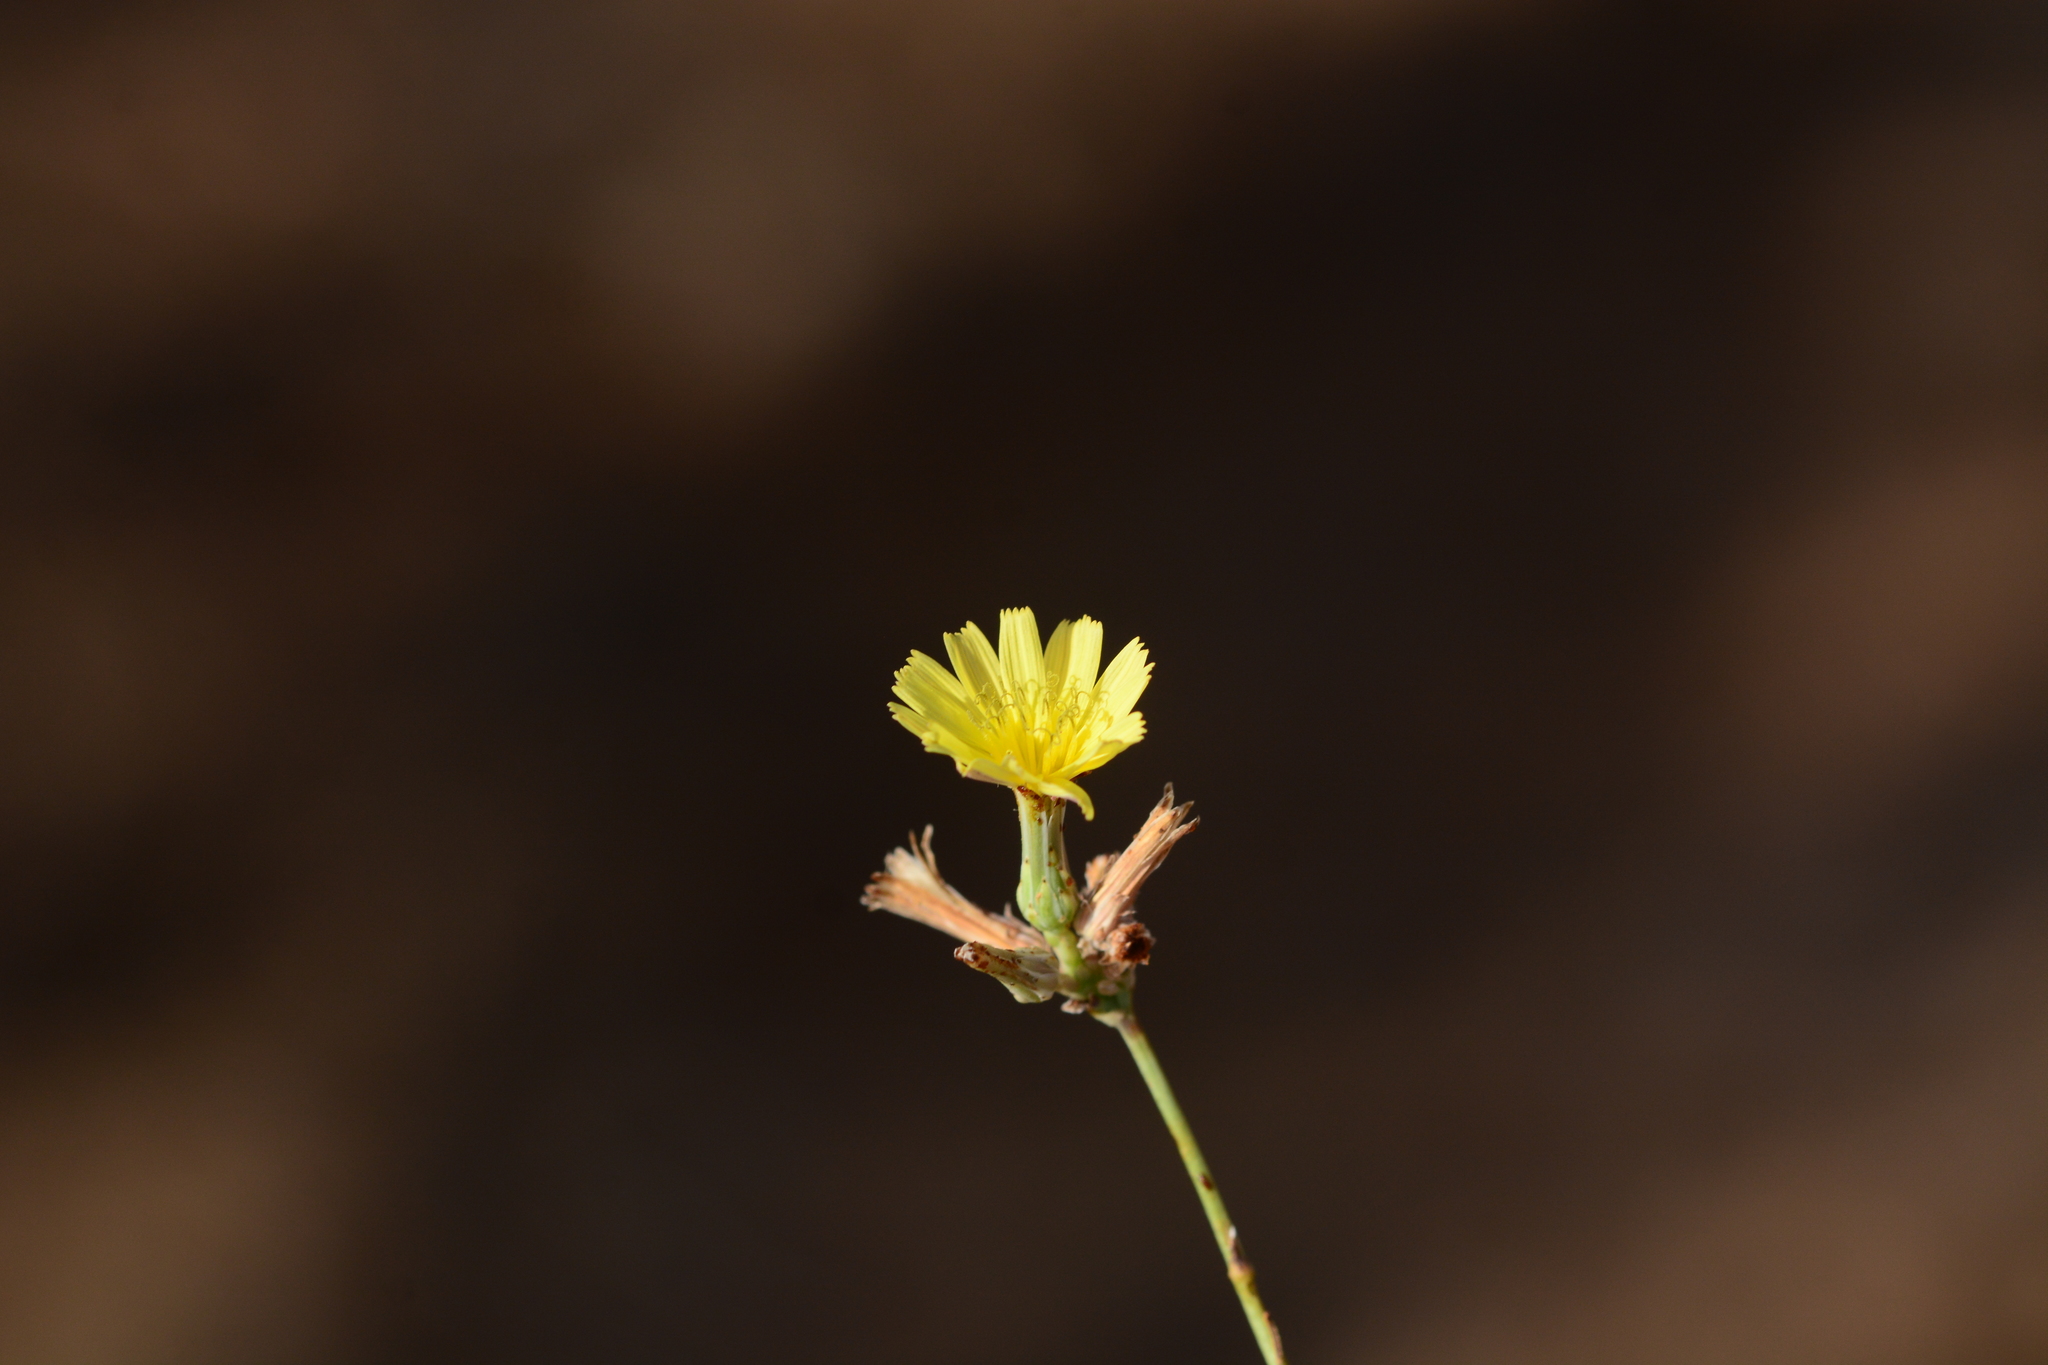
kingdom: Plantae
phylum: Tracheophyta
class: Magnoliopsida
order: Asterales
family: Asteraceae
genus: Launaea
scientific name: Launaea sarmentosa
